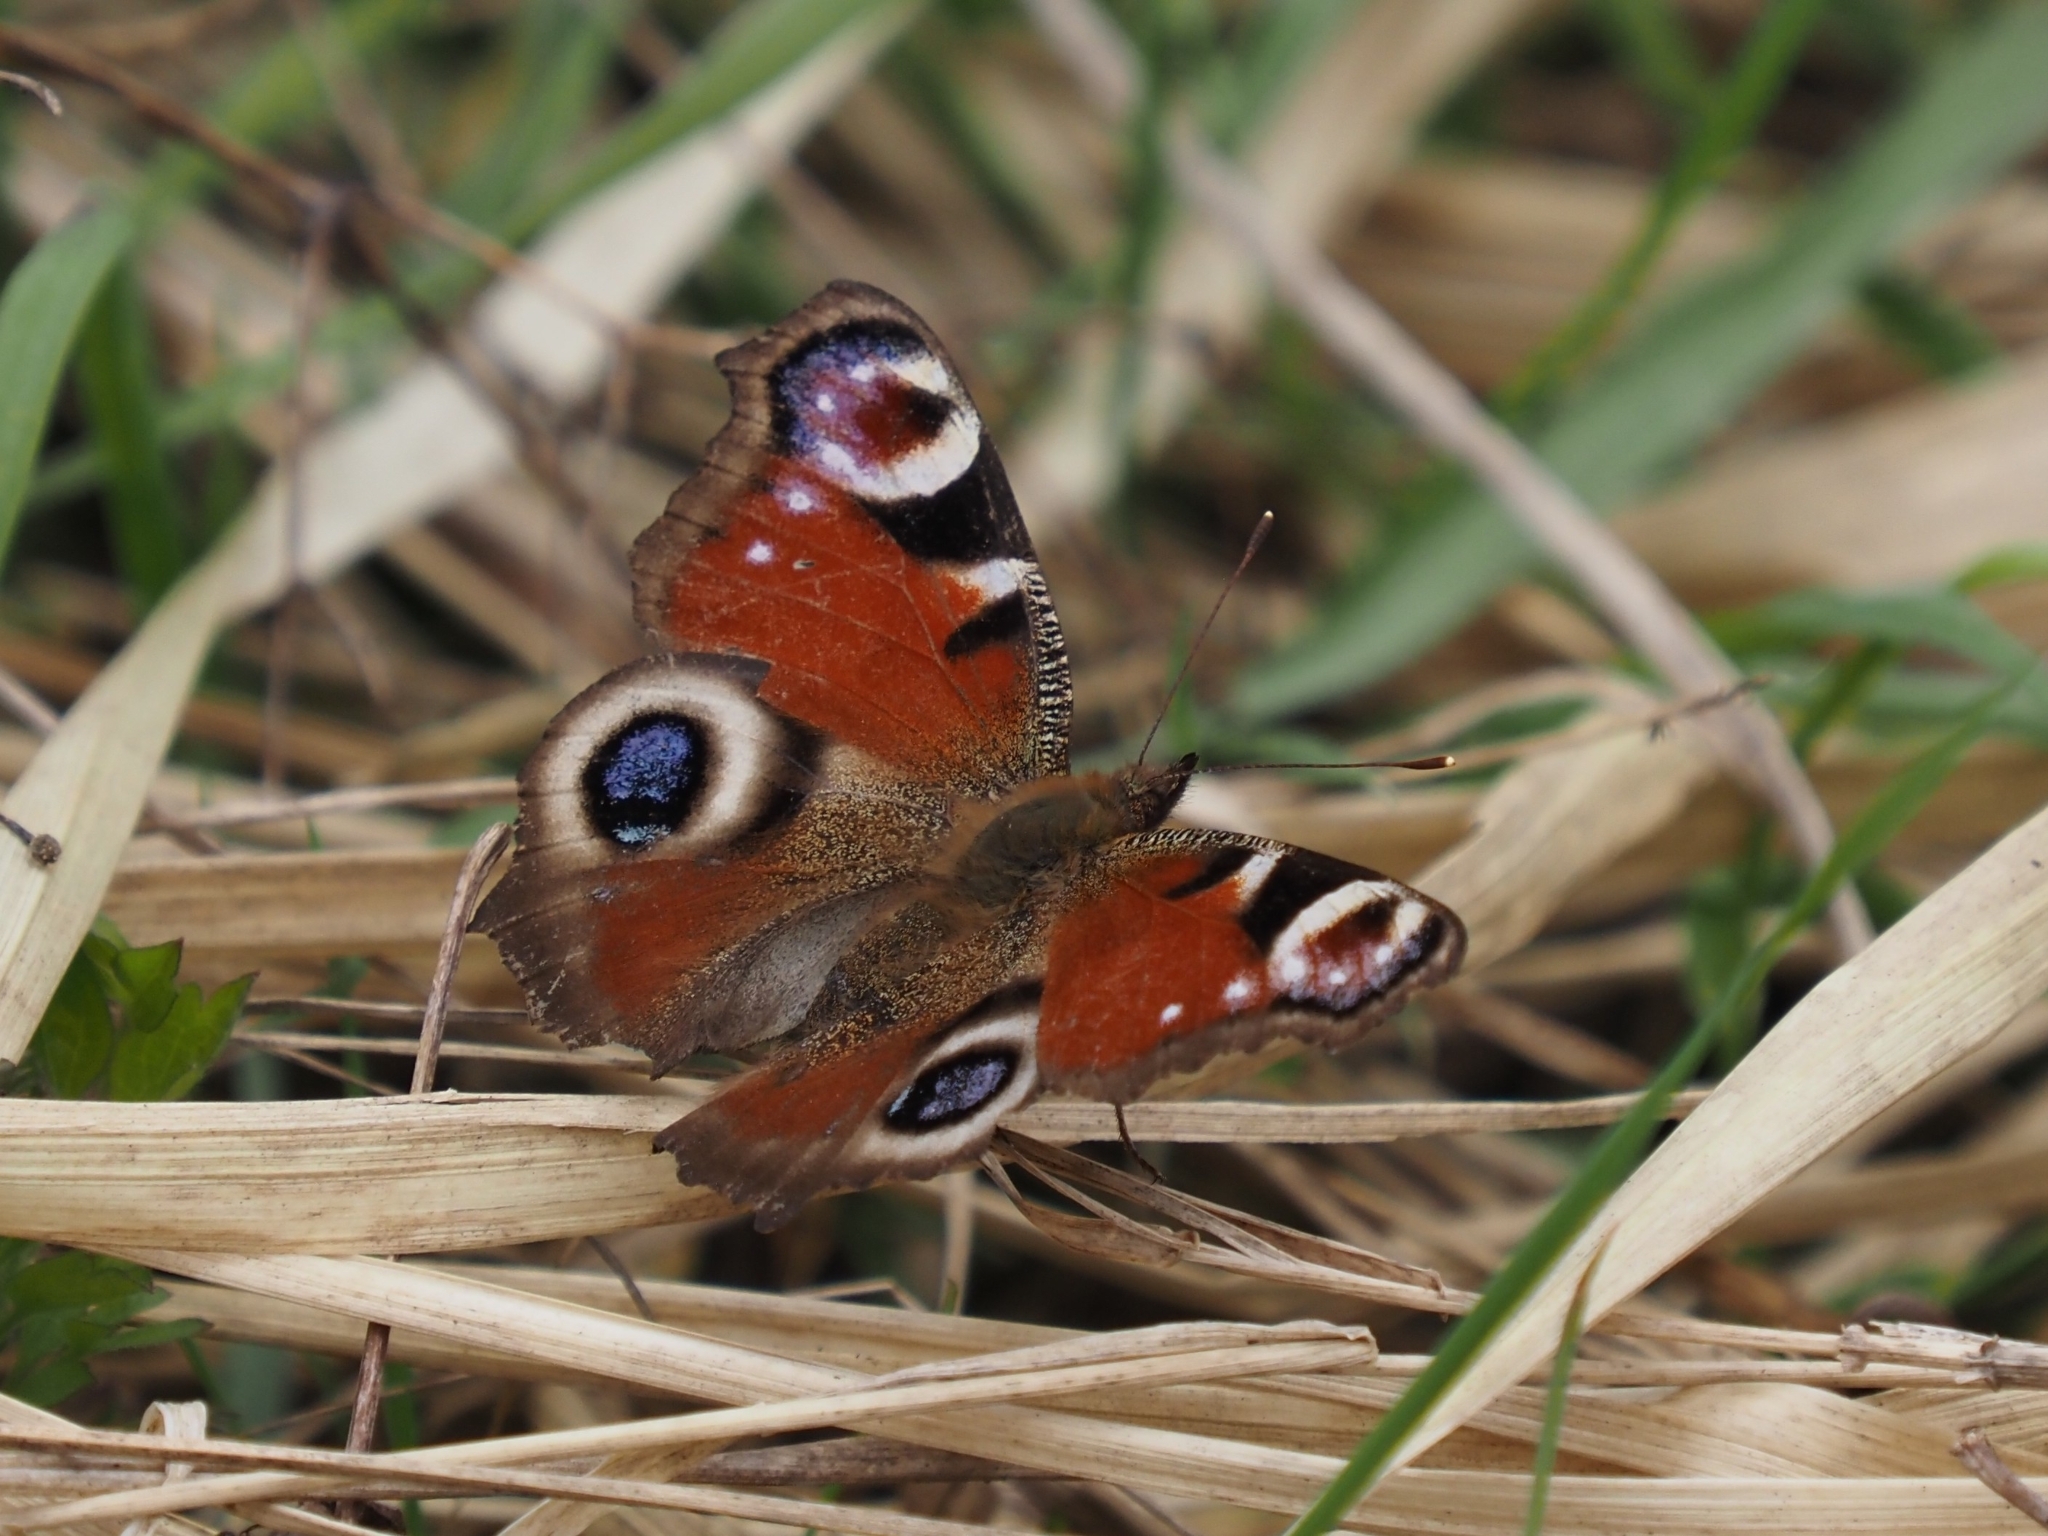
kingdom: Animalia
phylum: Arthropoda
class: Insecta
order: Lepidoptera
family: Nymphalidae
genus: Aglais
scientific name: Aglais io
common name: Peacock
